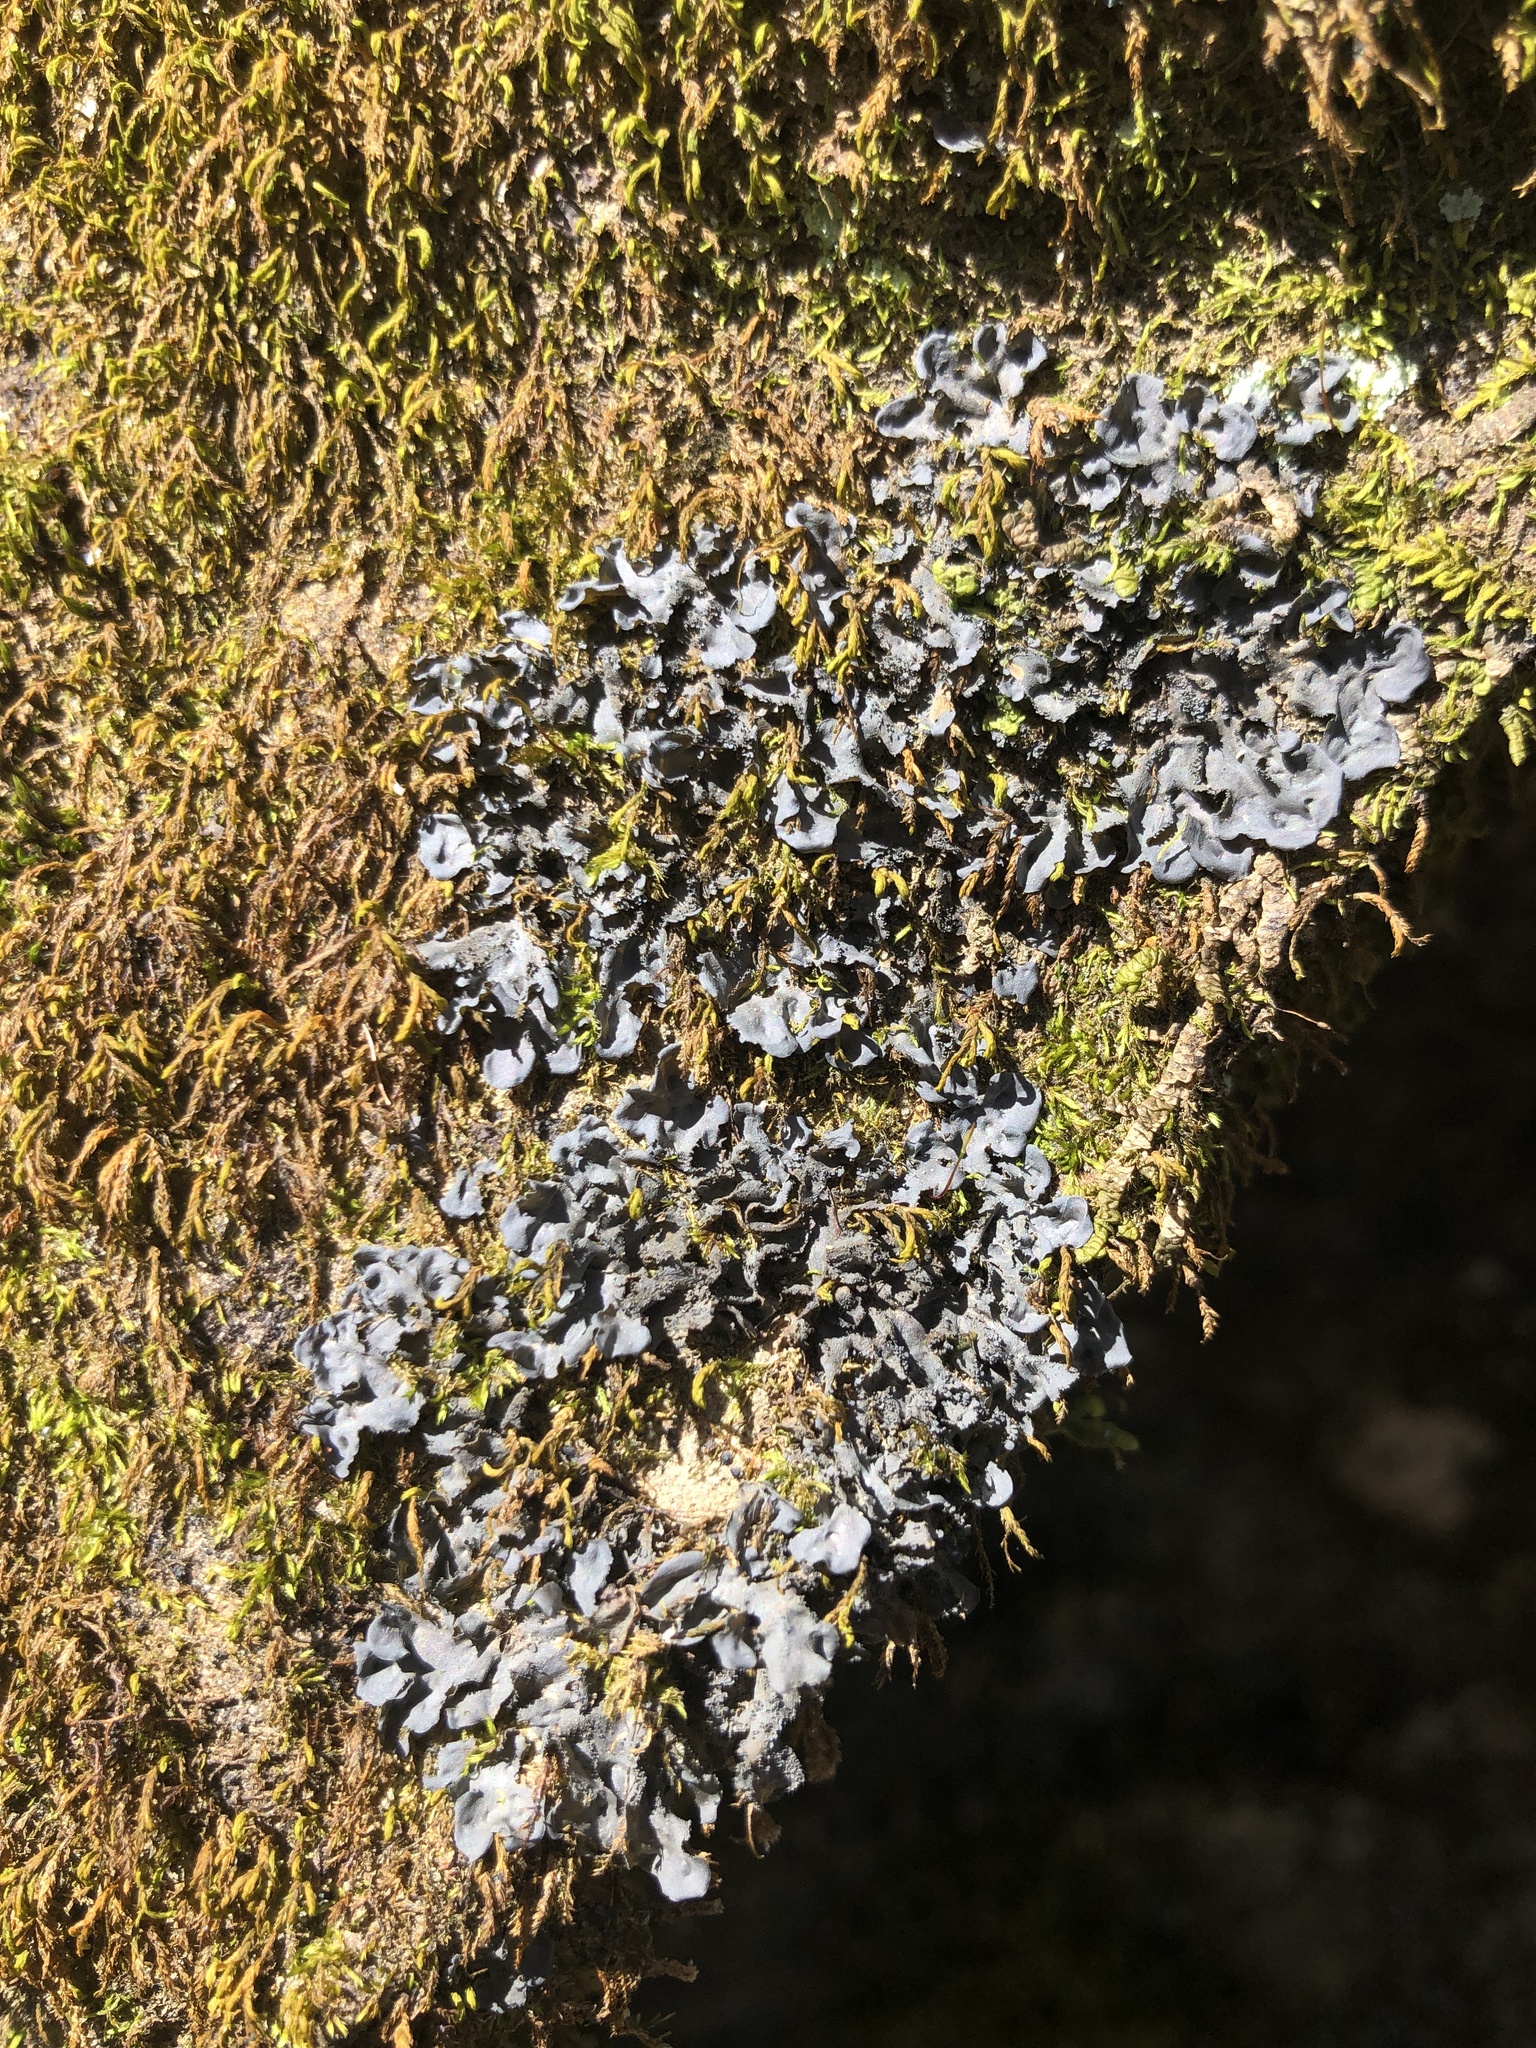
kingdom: Fungi
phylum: Ascomycota
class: Lecanoromycetes
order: Peltigerales
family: Collemataceae
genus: Leptogium
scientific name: Leptogium cyanescens
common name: Blue jellyskin
